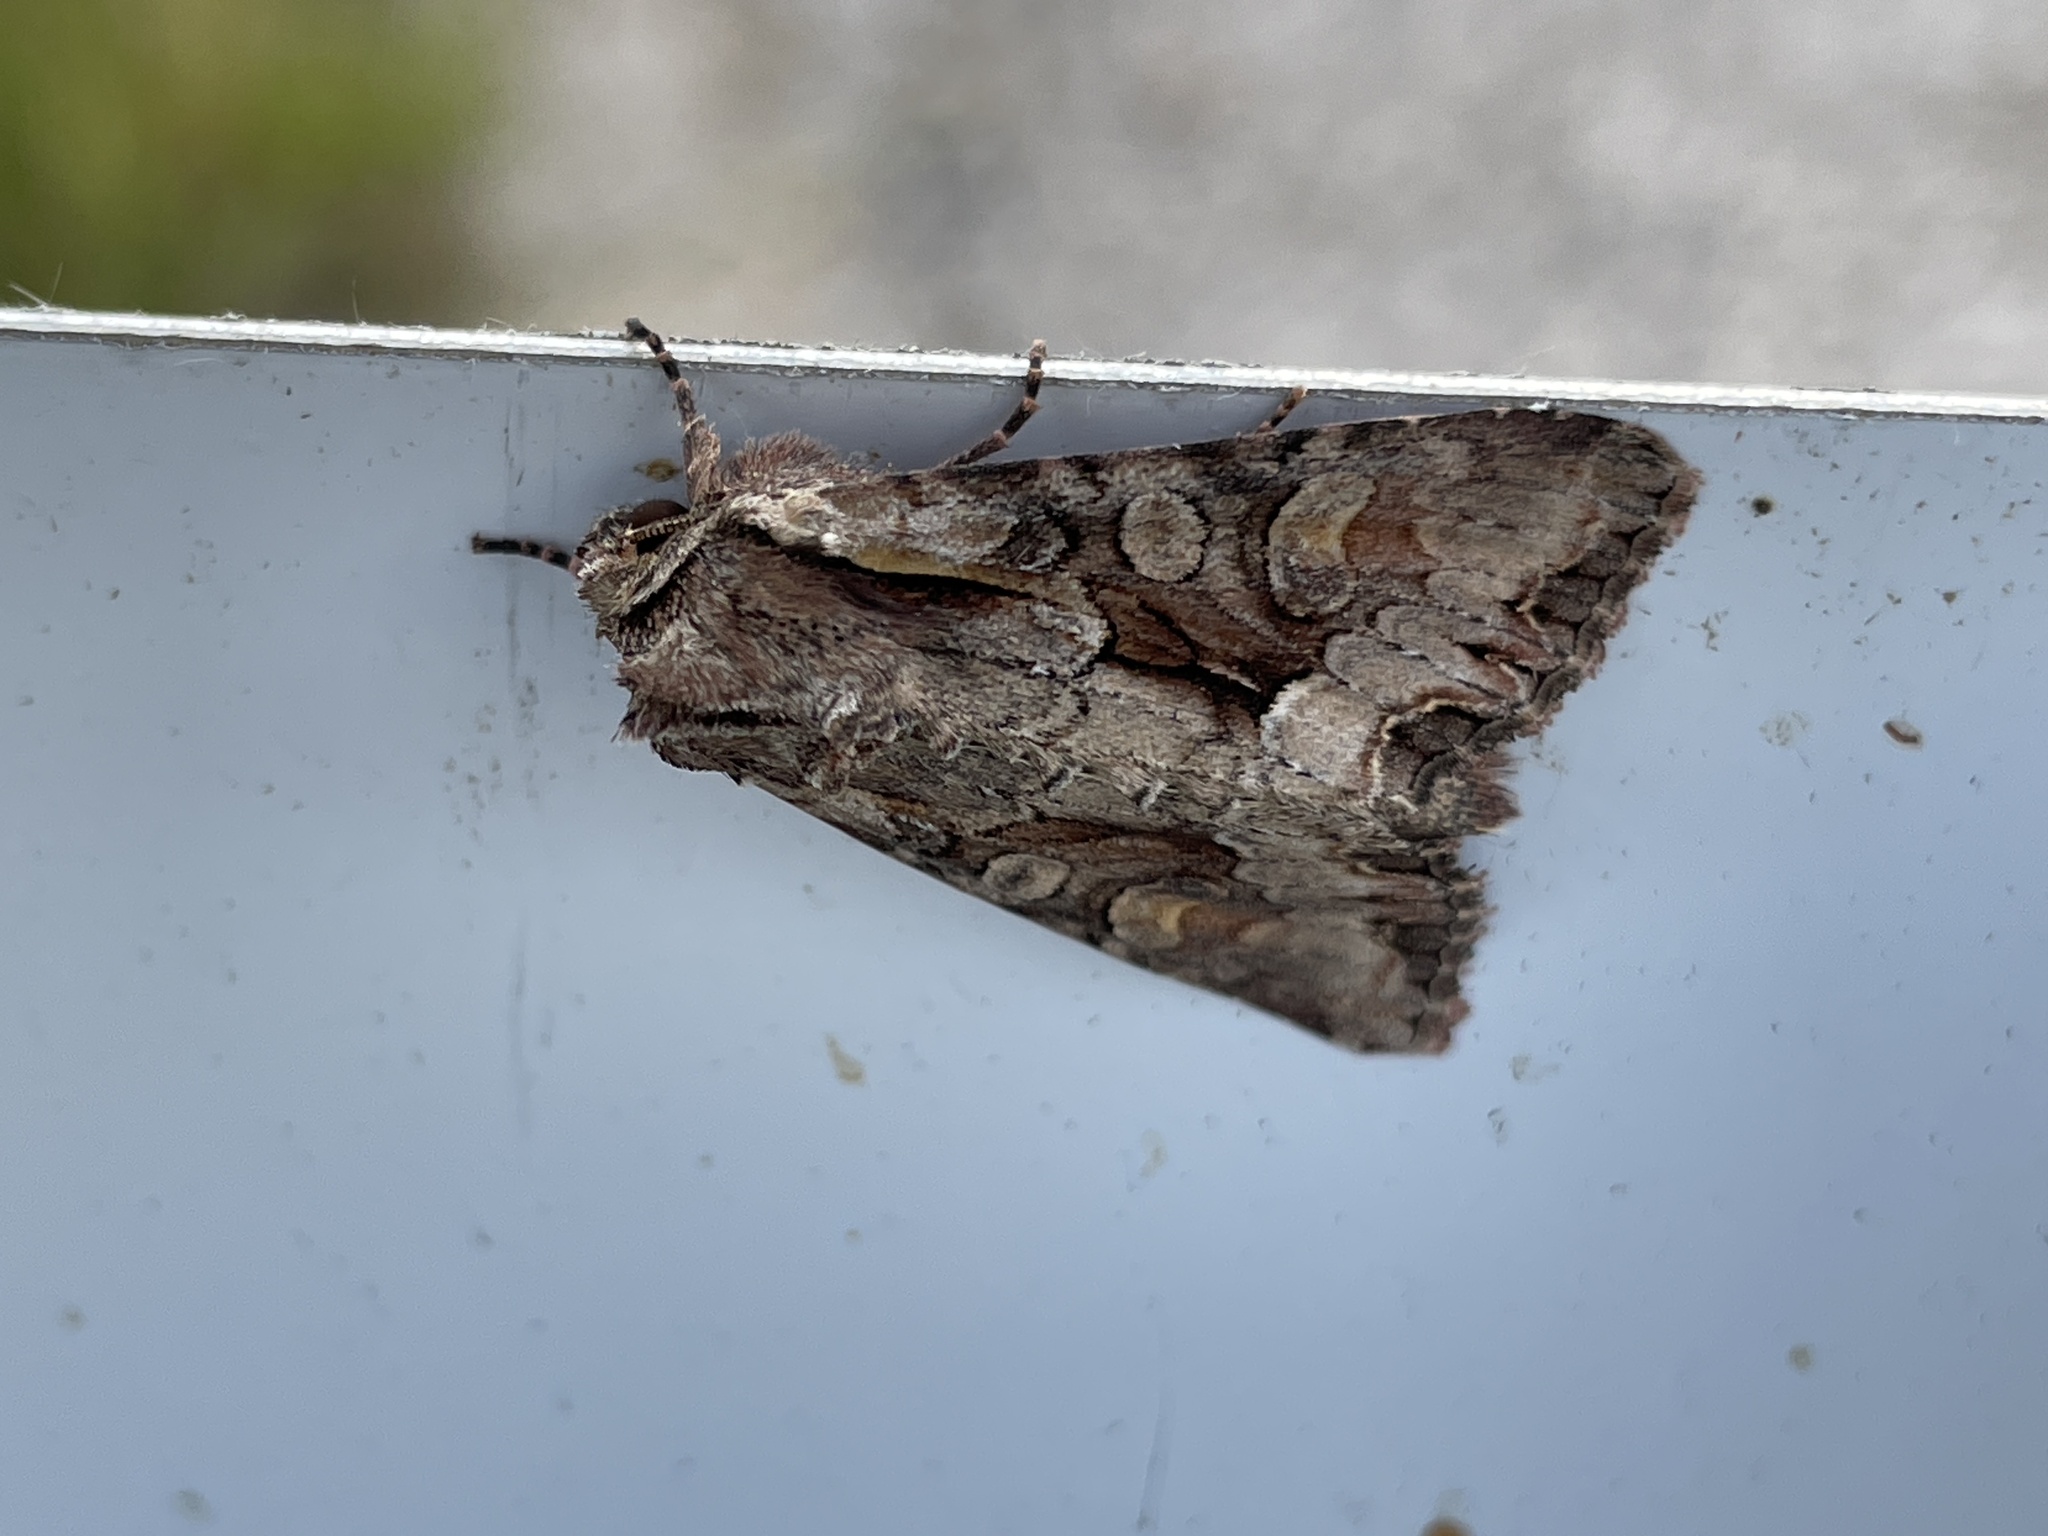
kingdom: Animalia
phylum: Arthropoda
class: Insecta
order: Lepidoptera
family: Noctuidae
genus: Lacanobia
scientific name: Lacanobia w-latinum
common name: Light brocade
